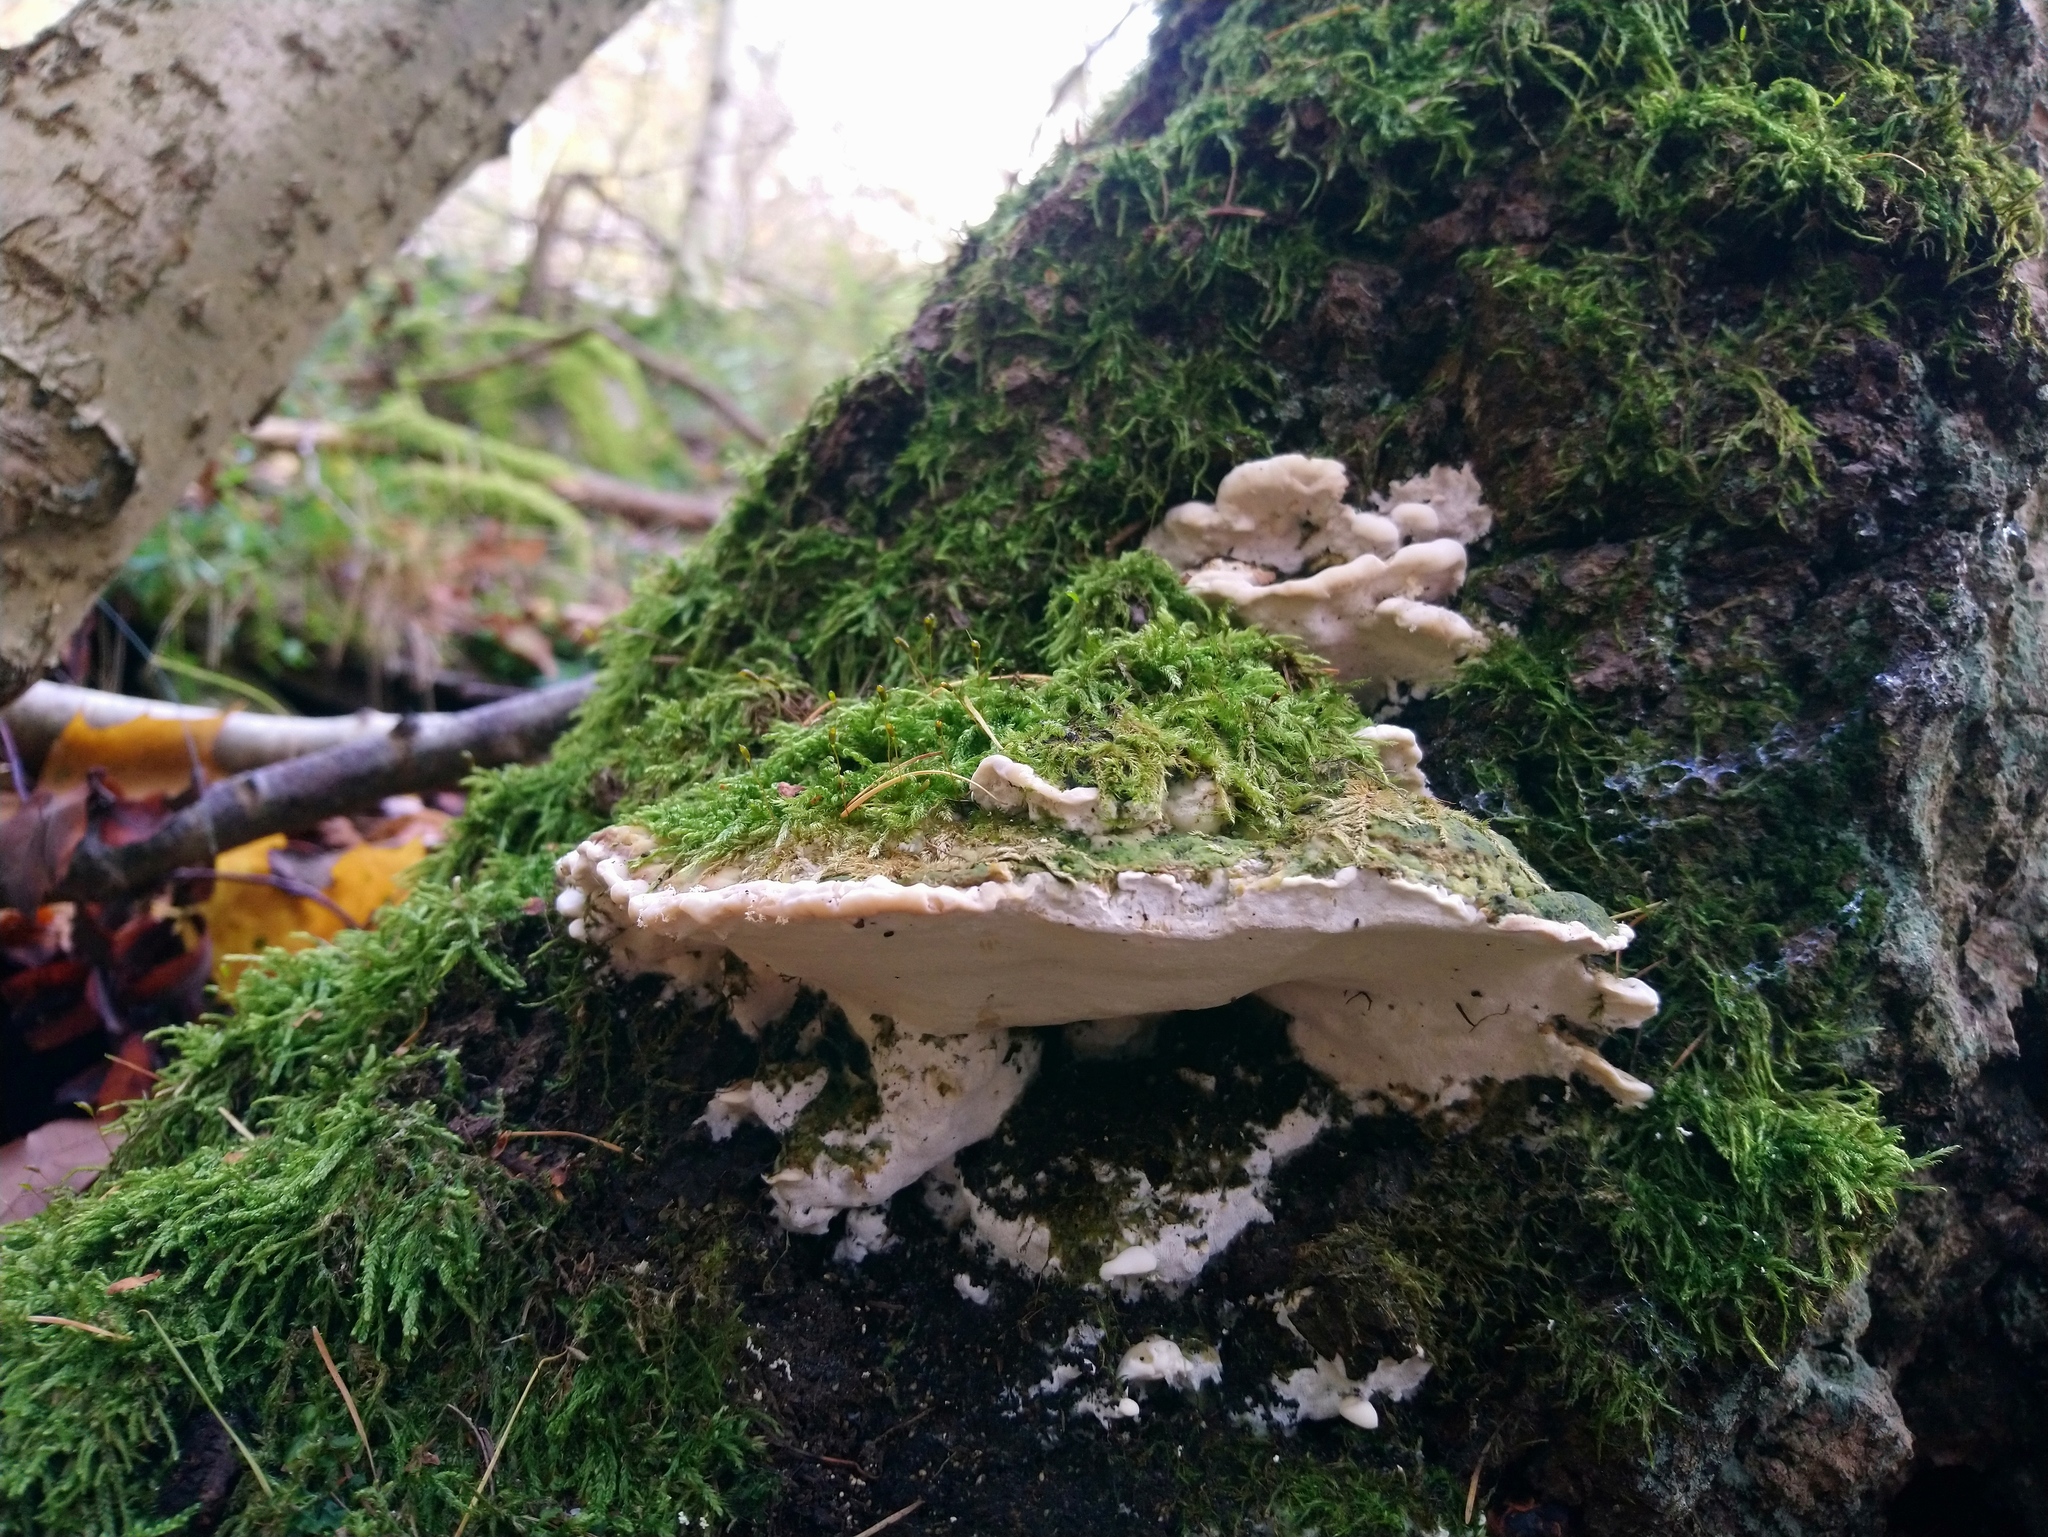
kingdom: Fungi
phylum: Basidiomycota
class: Agaricomycetes
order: Hymenochaetales
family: Oxyporaceae
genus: Oxyporus
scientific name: Oxyporus populinus
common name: Poplar bracket
